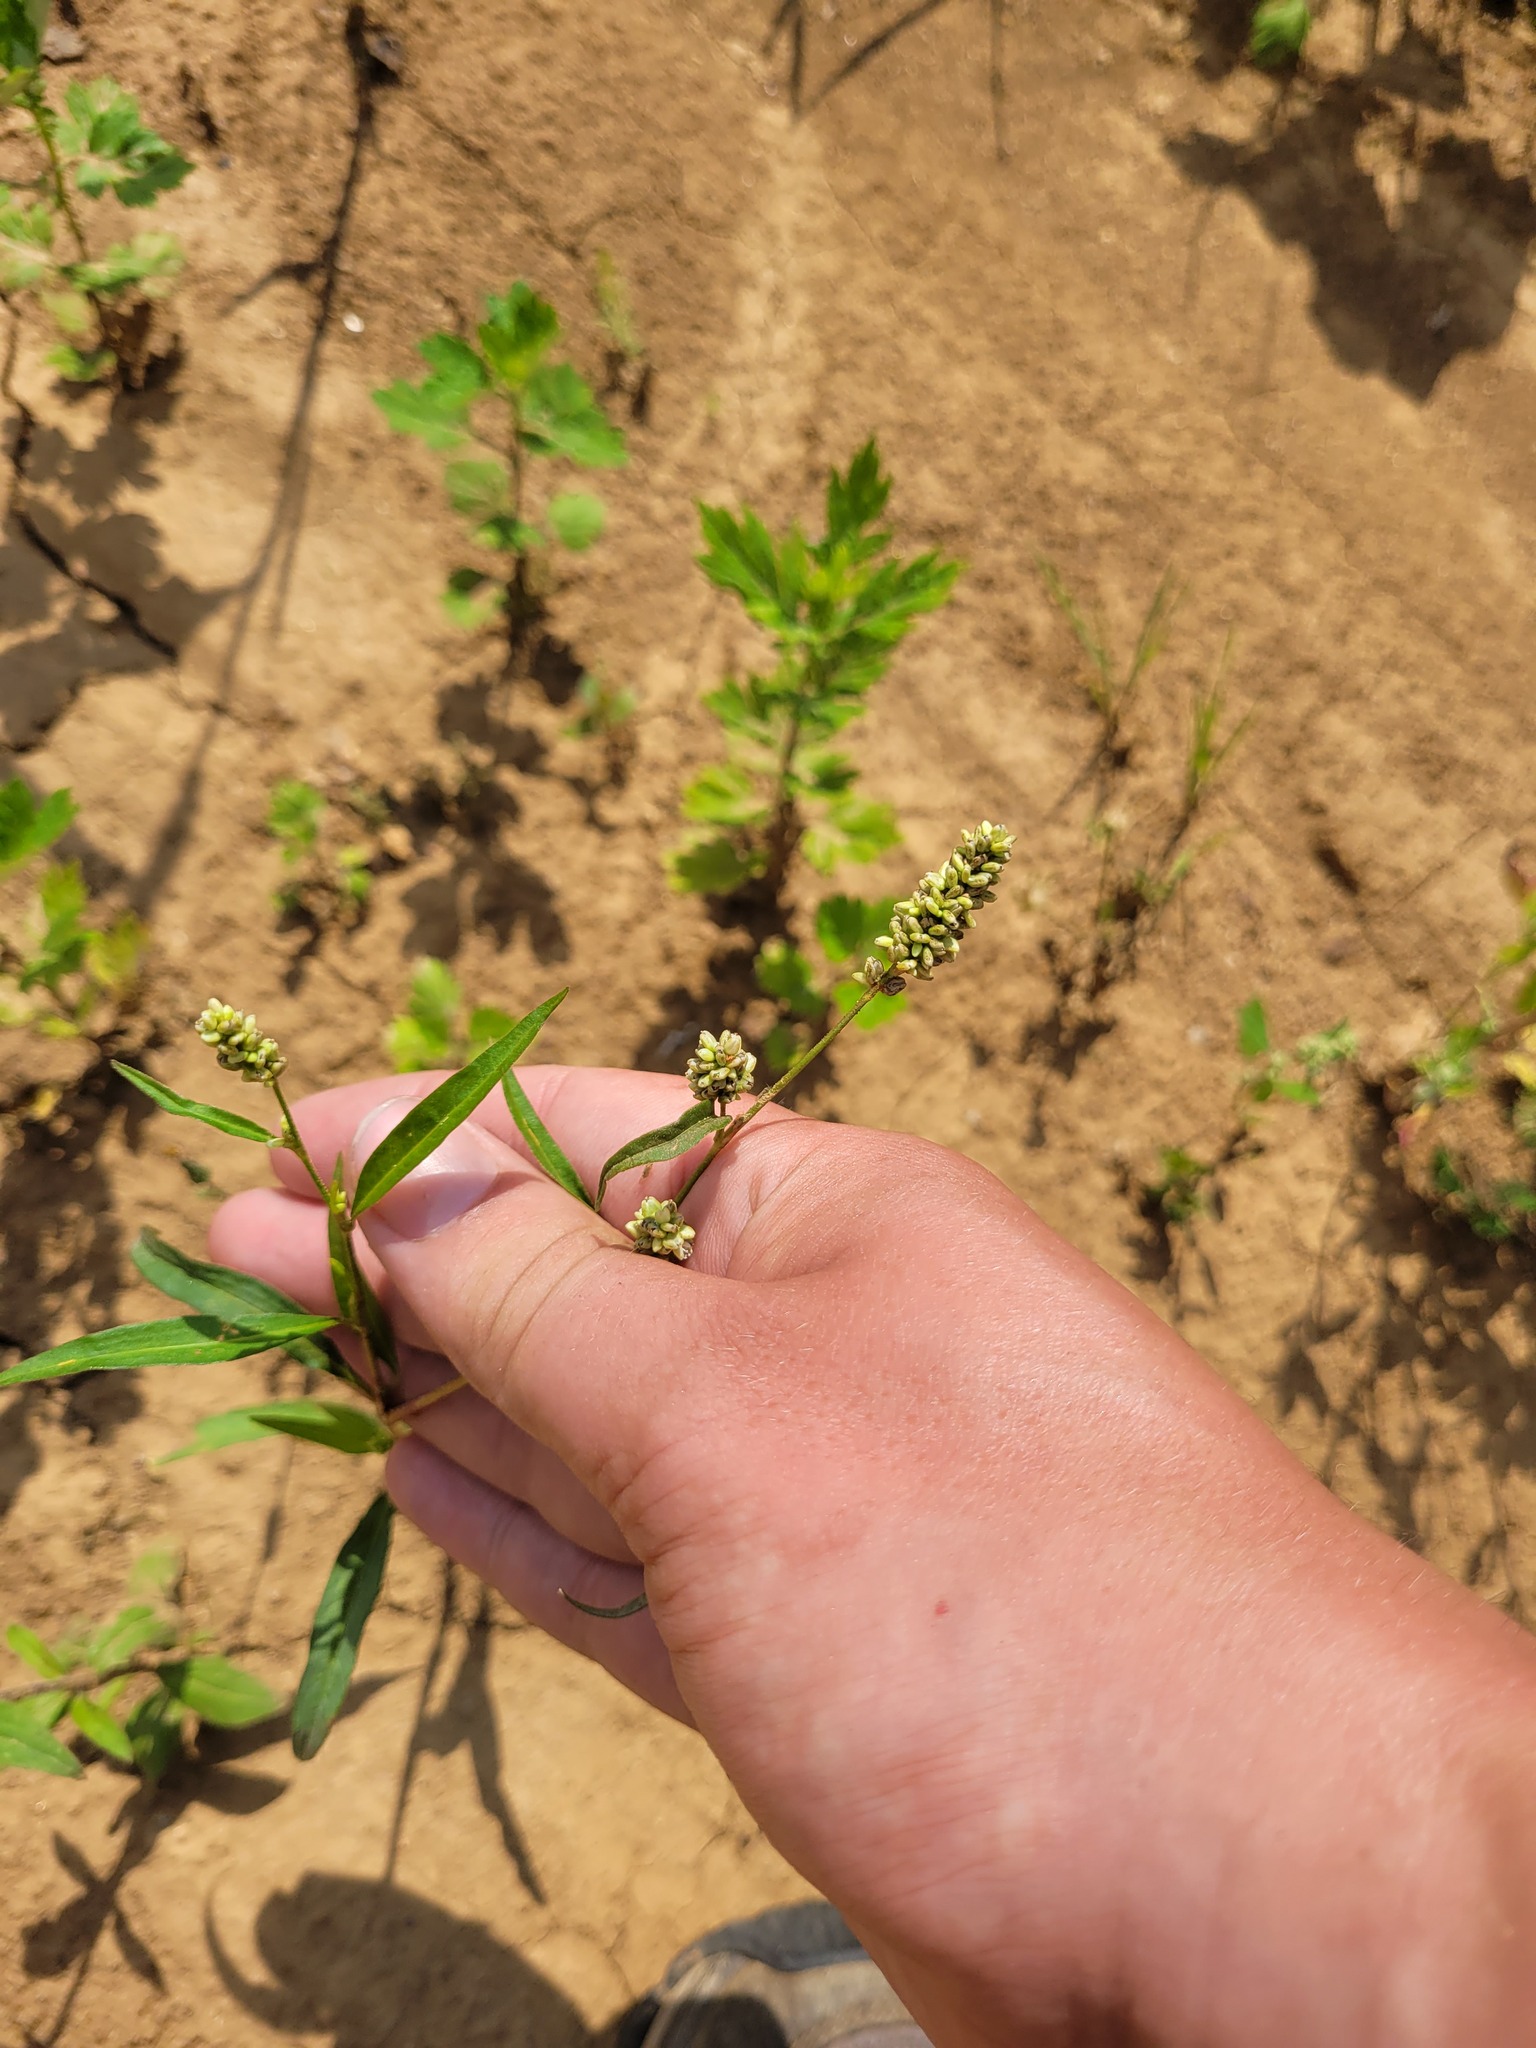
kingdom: Plantae
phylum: Tracheophyta
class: Magnoliopsida
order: Caryophyllales
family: Polygonaceae
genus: Persicaria
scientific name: Persicaria lapathifolia
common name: Curlytop knotweed
